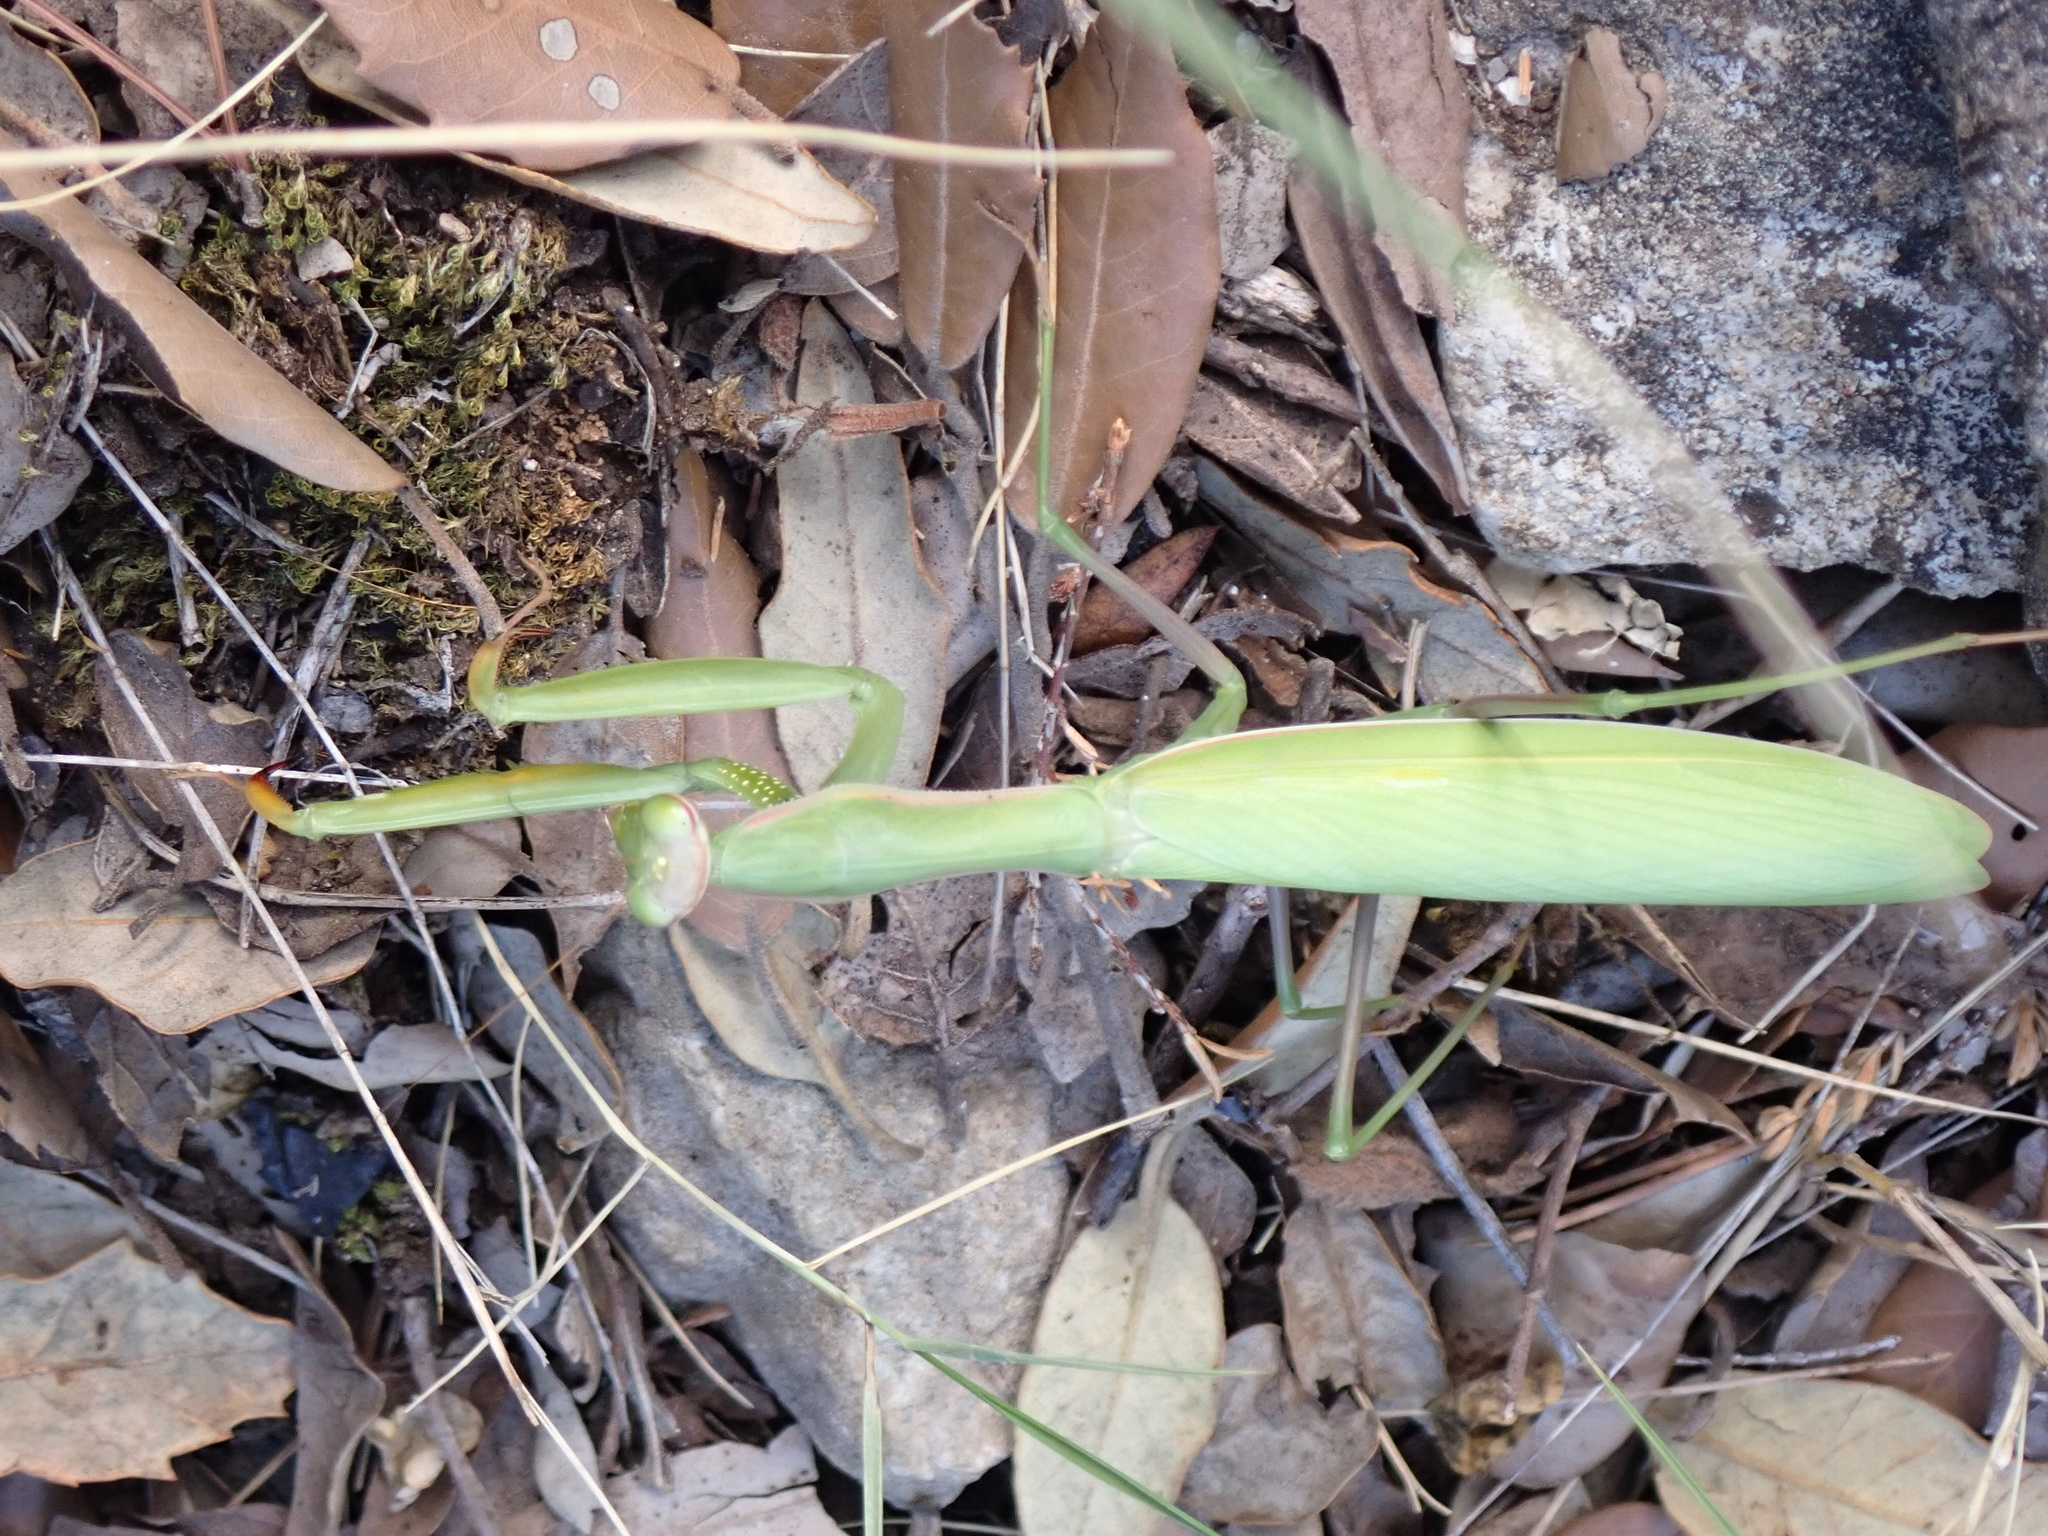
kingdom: Animalia
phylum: Arthropoda
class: Insecta
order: Mantodea
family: Mantidae
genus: Mantis
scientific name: Mantis religiosa
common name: Praying mantis
